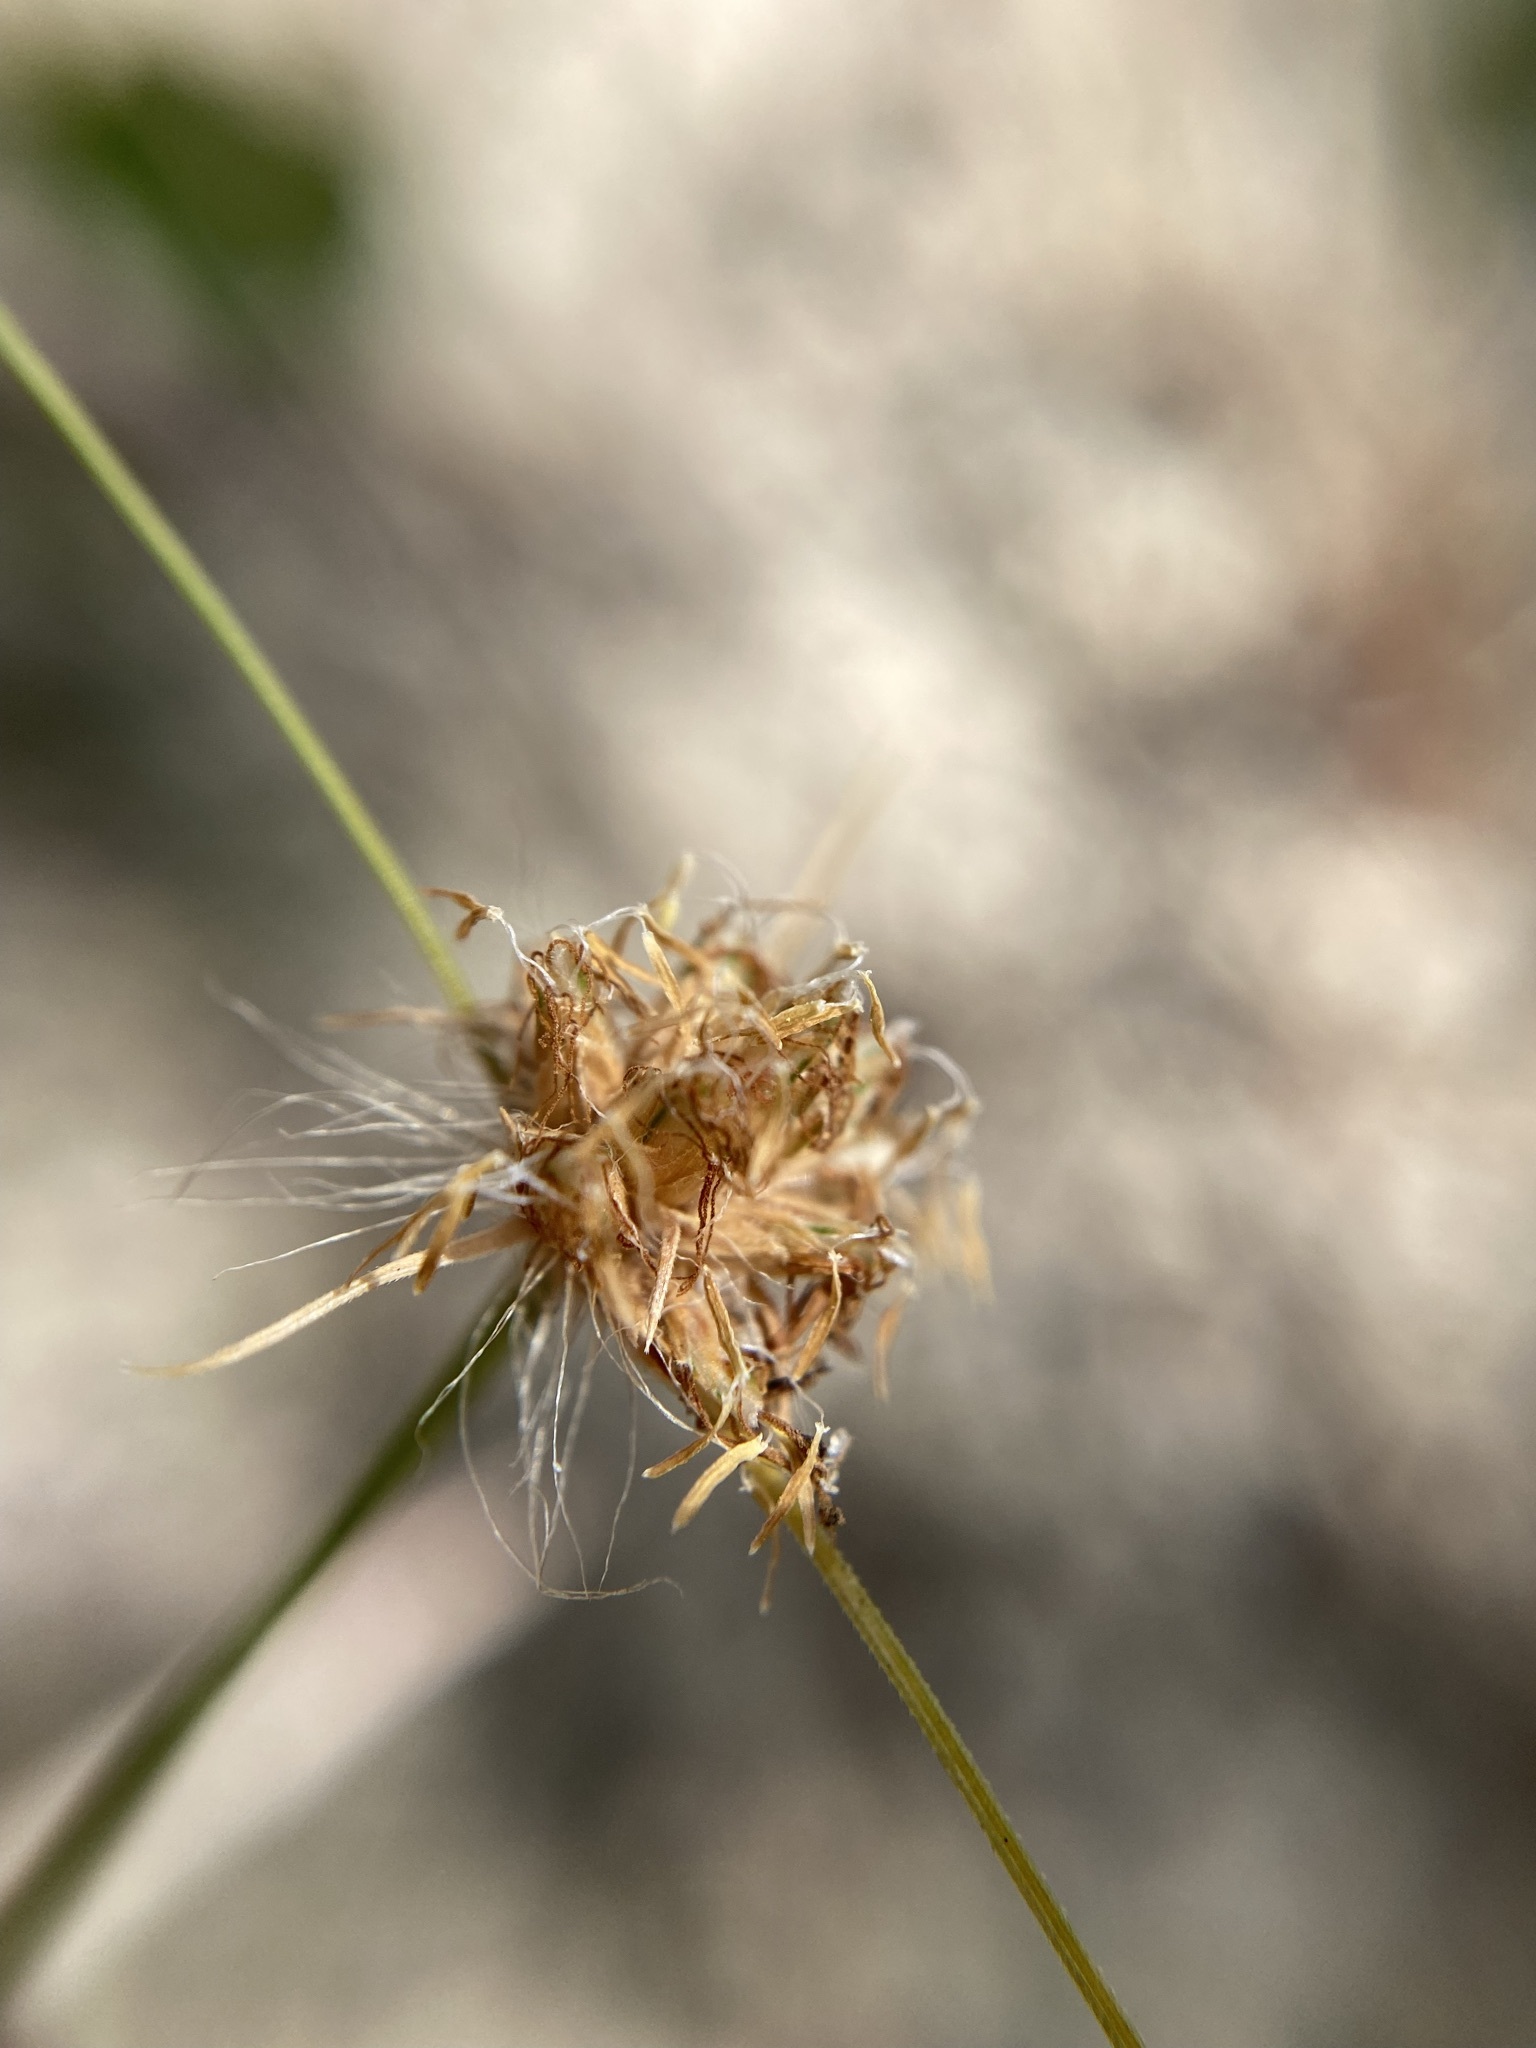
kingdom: Plantae
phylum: Tracheophyta
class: Liliopsida
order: Poales
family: Cyperaceae
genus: Bulbostylis
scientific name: Bulbostylis warei
